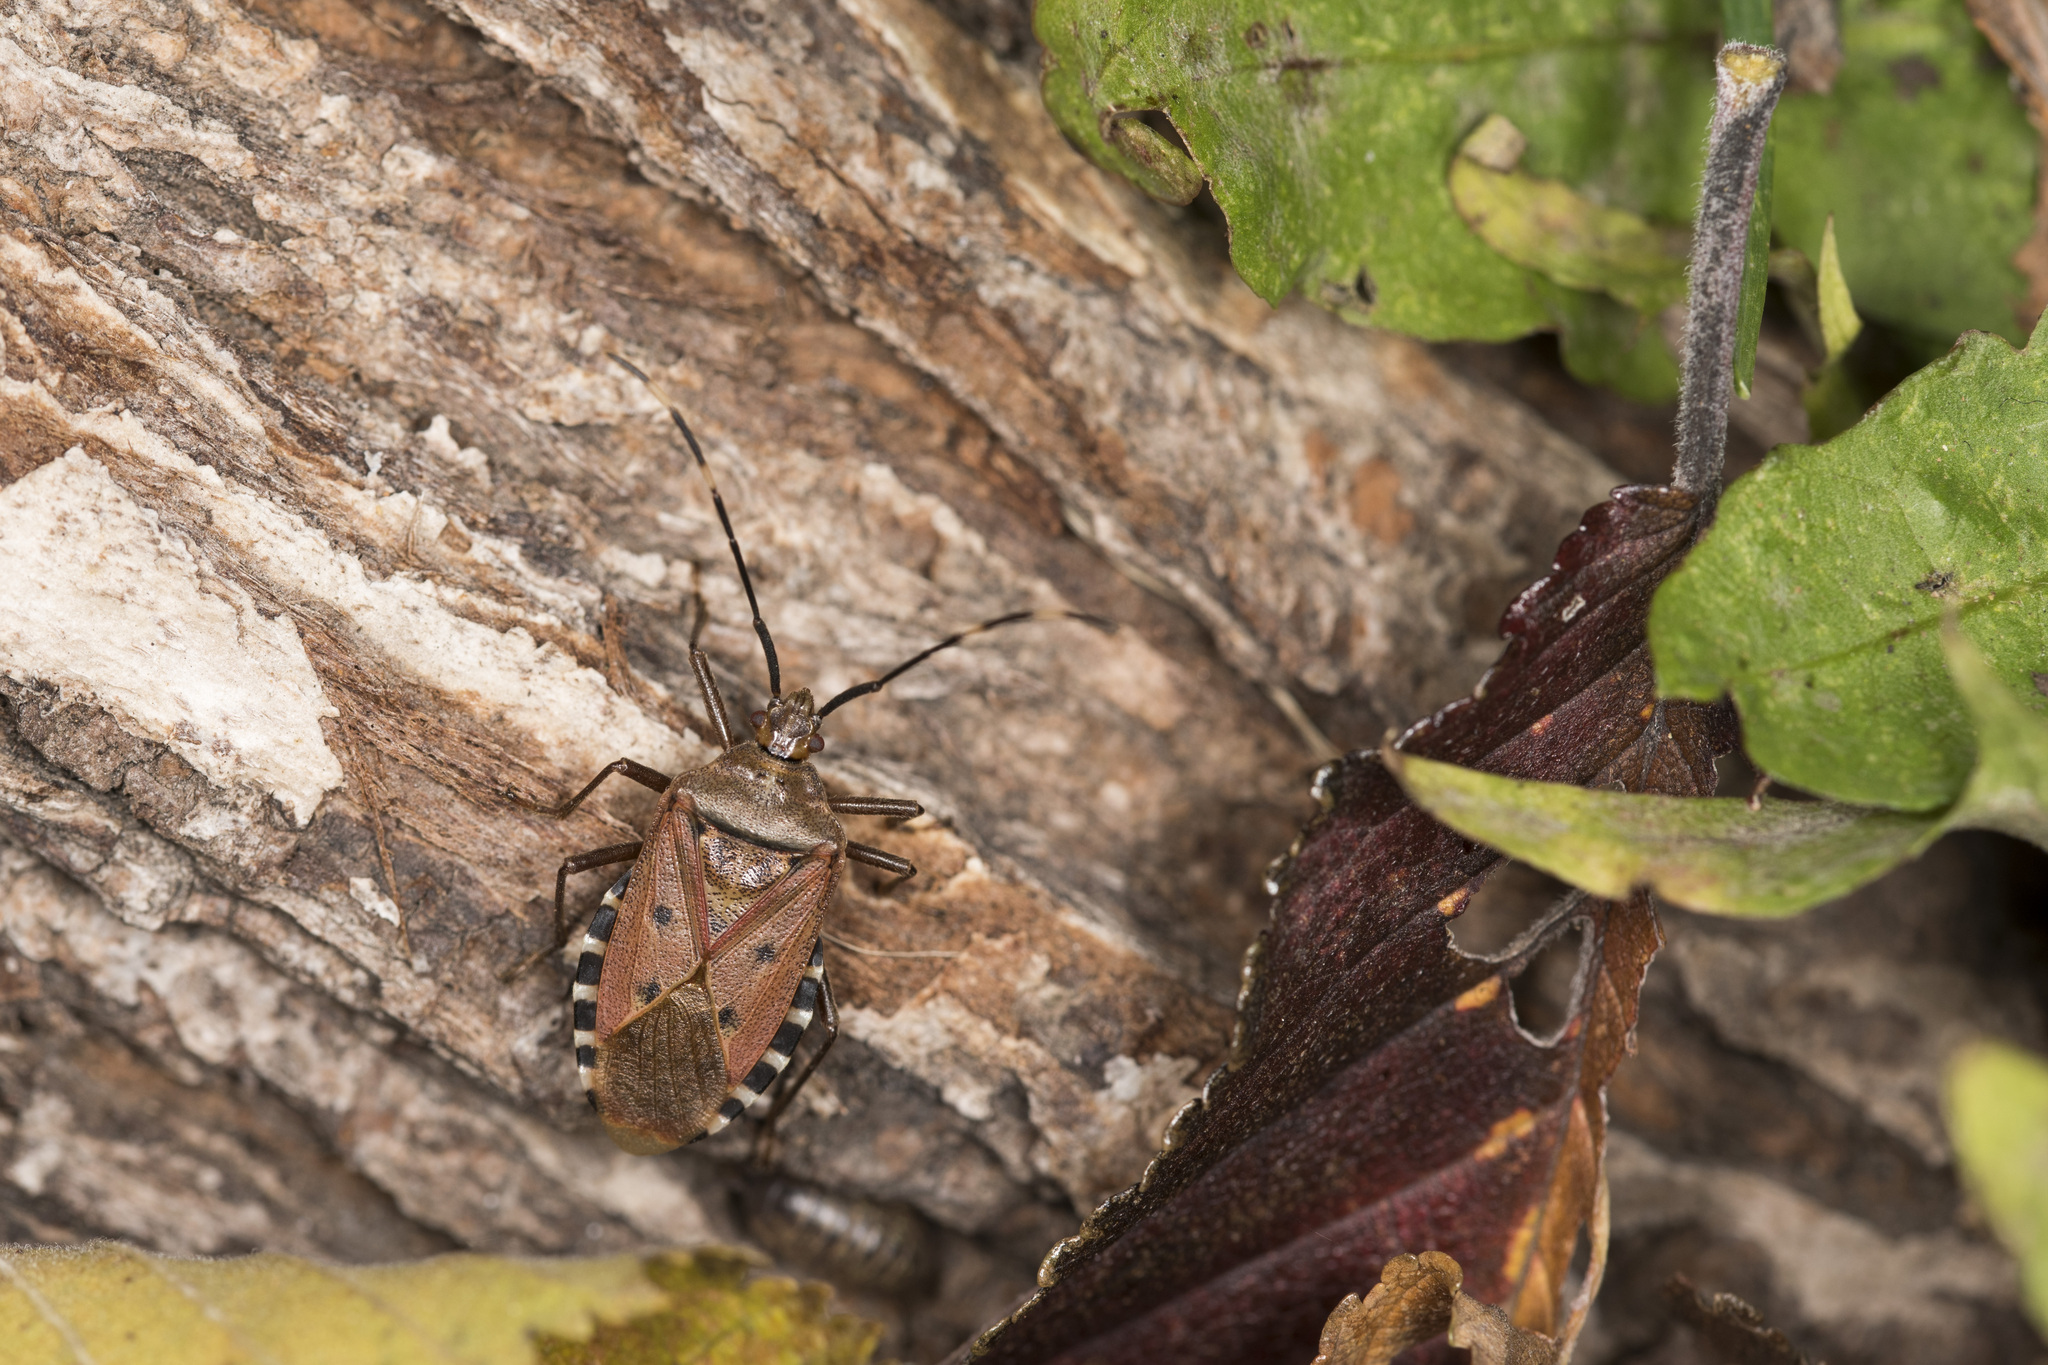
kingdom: Animalia
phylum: Arthropoda
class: Insecta
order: Hemiptera
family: Urostylididae
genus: Urochela
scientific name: Urochela quadrinotata
